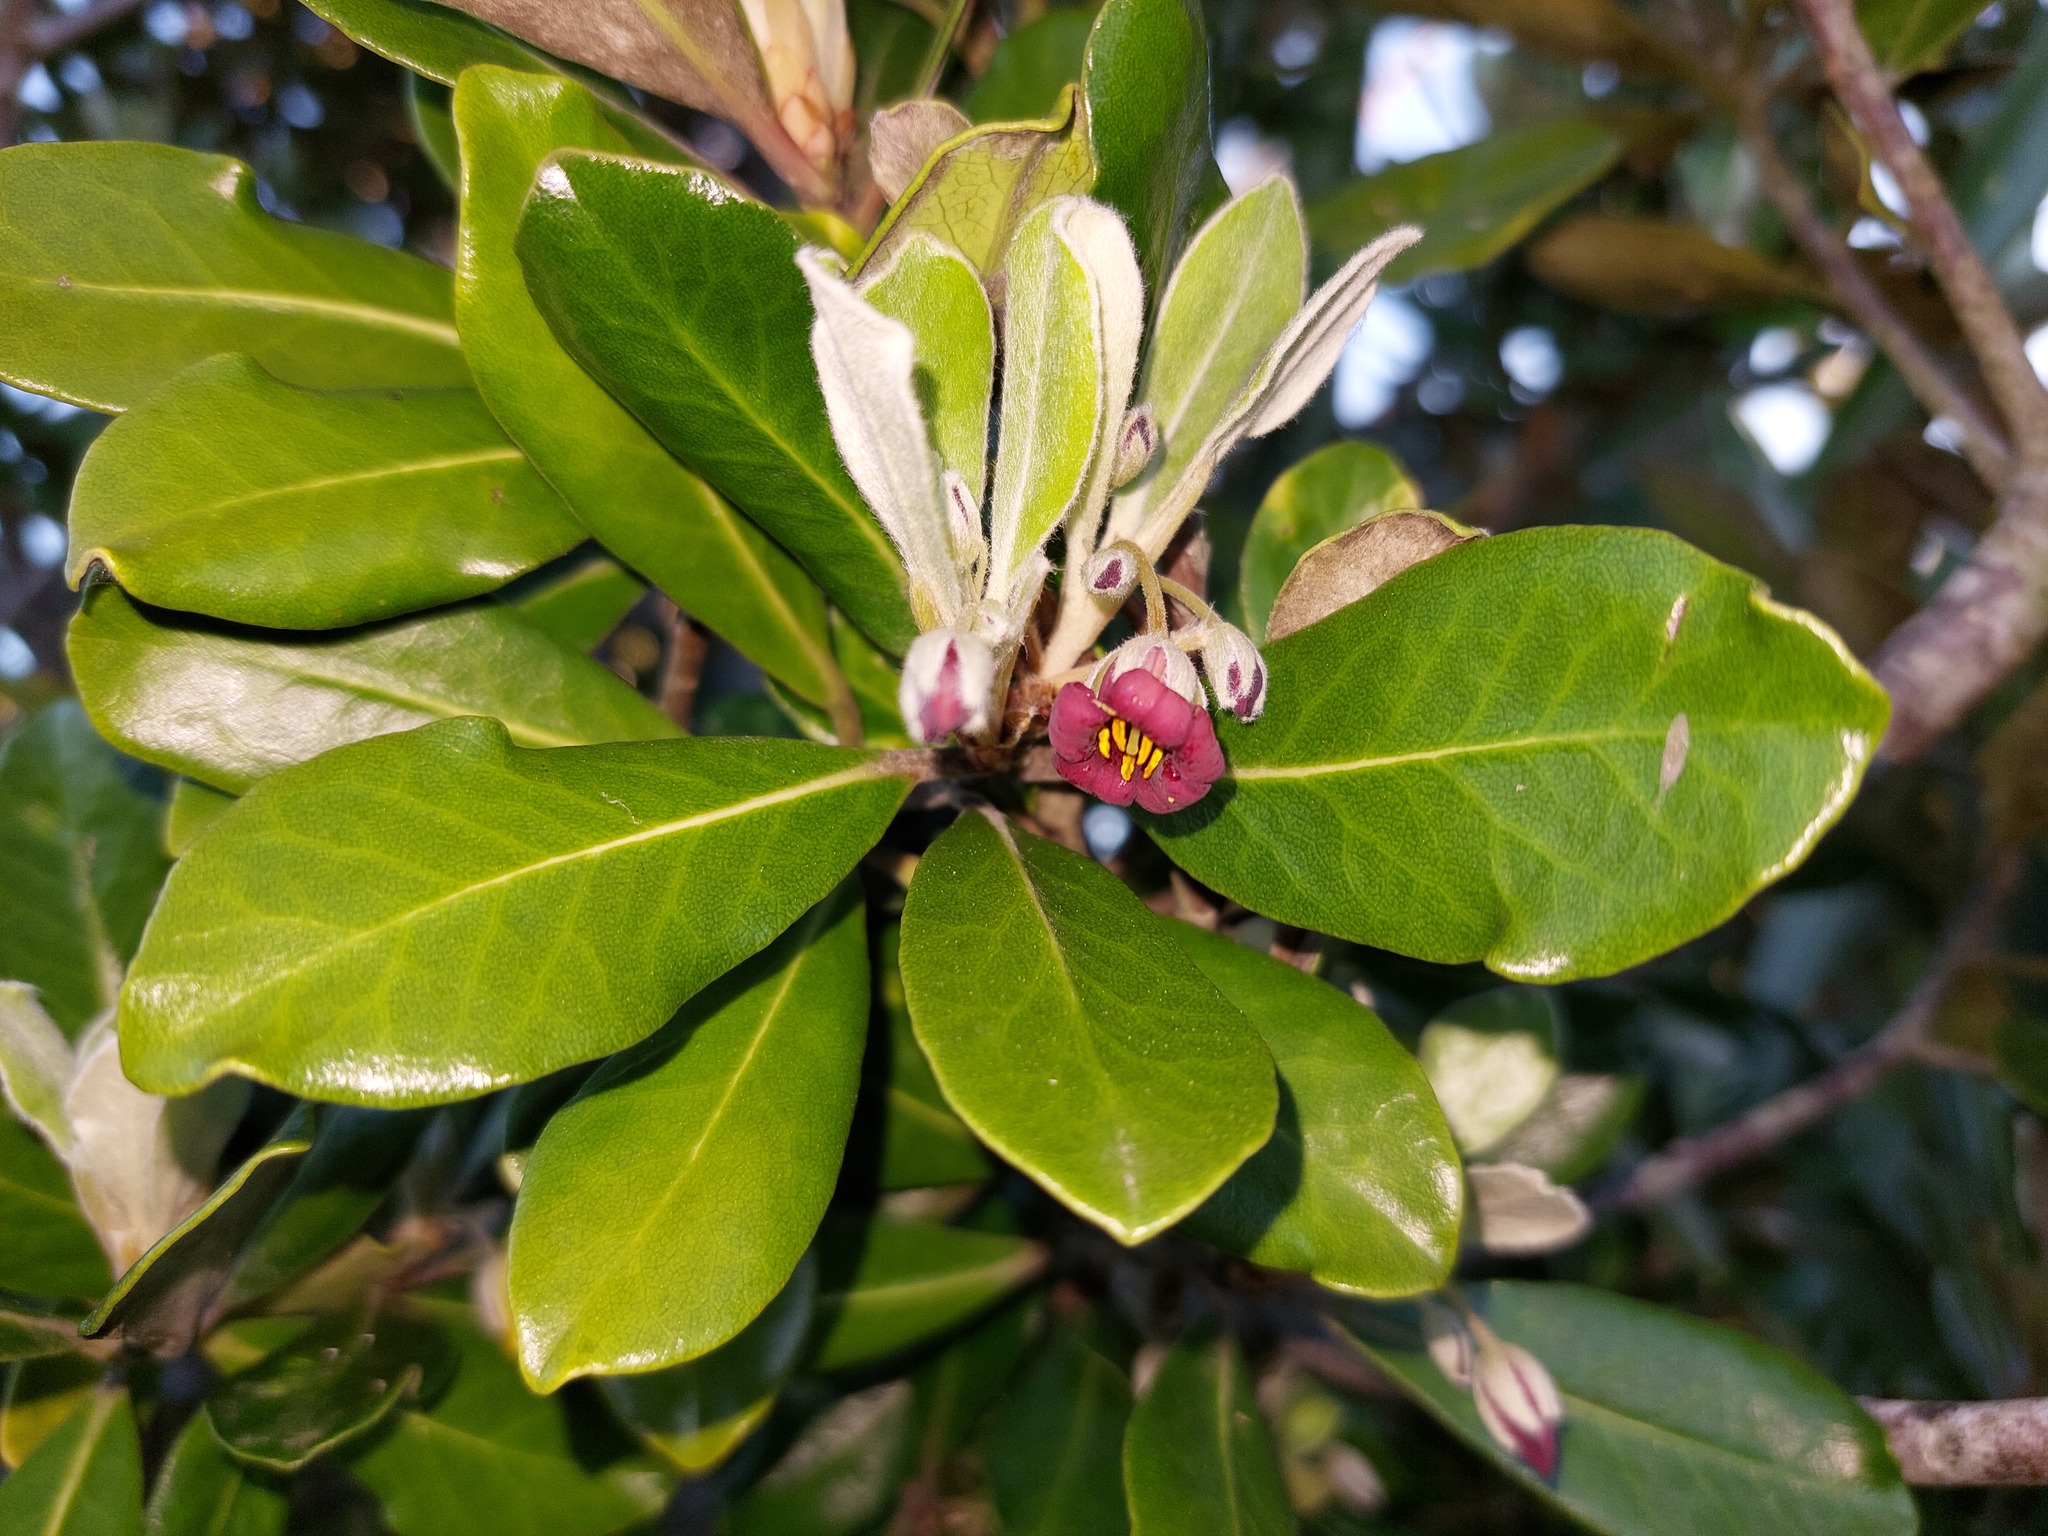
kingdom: Plantae
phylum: Tracheophyta
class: Magnoliopsida
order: Apiales
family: Pittosporaceae
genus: Pittosporum
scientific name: Pittosporum crassifolium
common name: Karo
